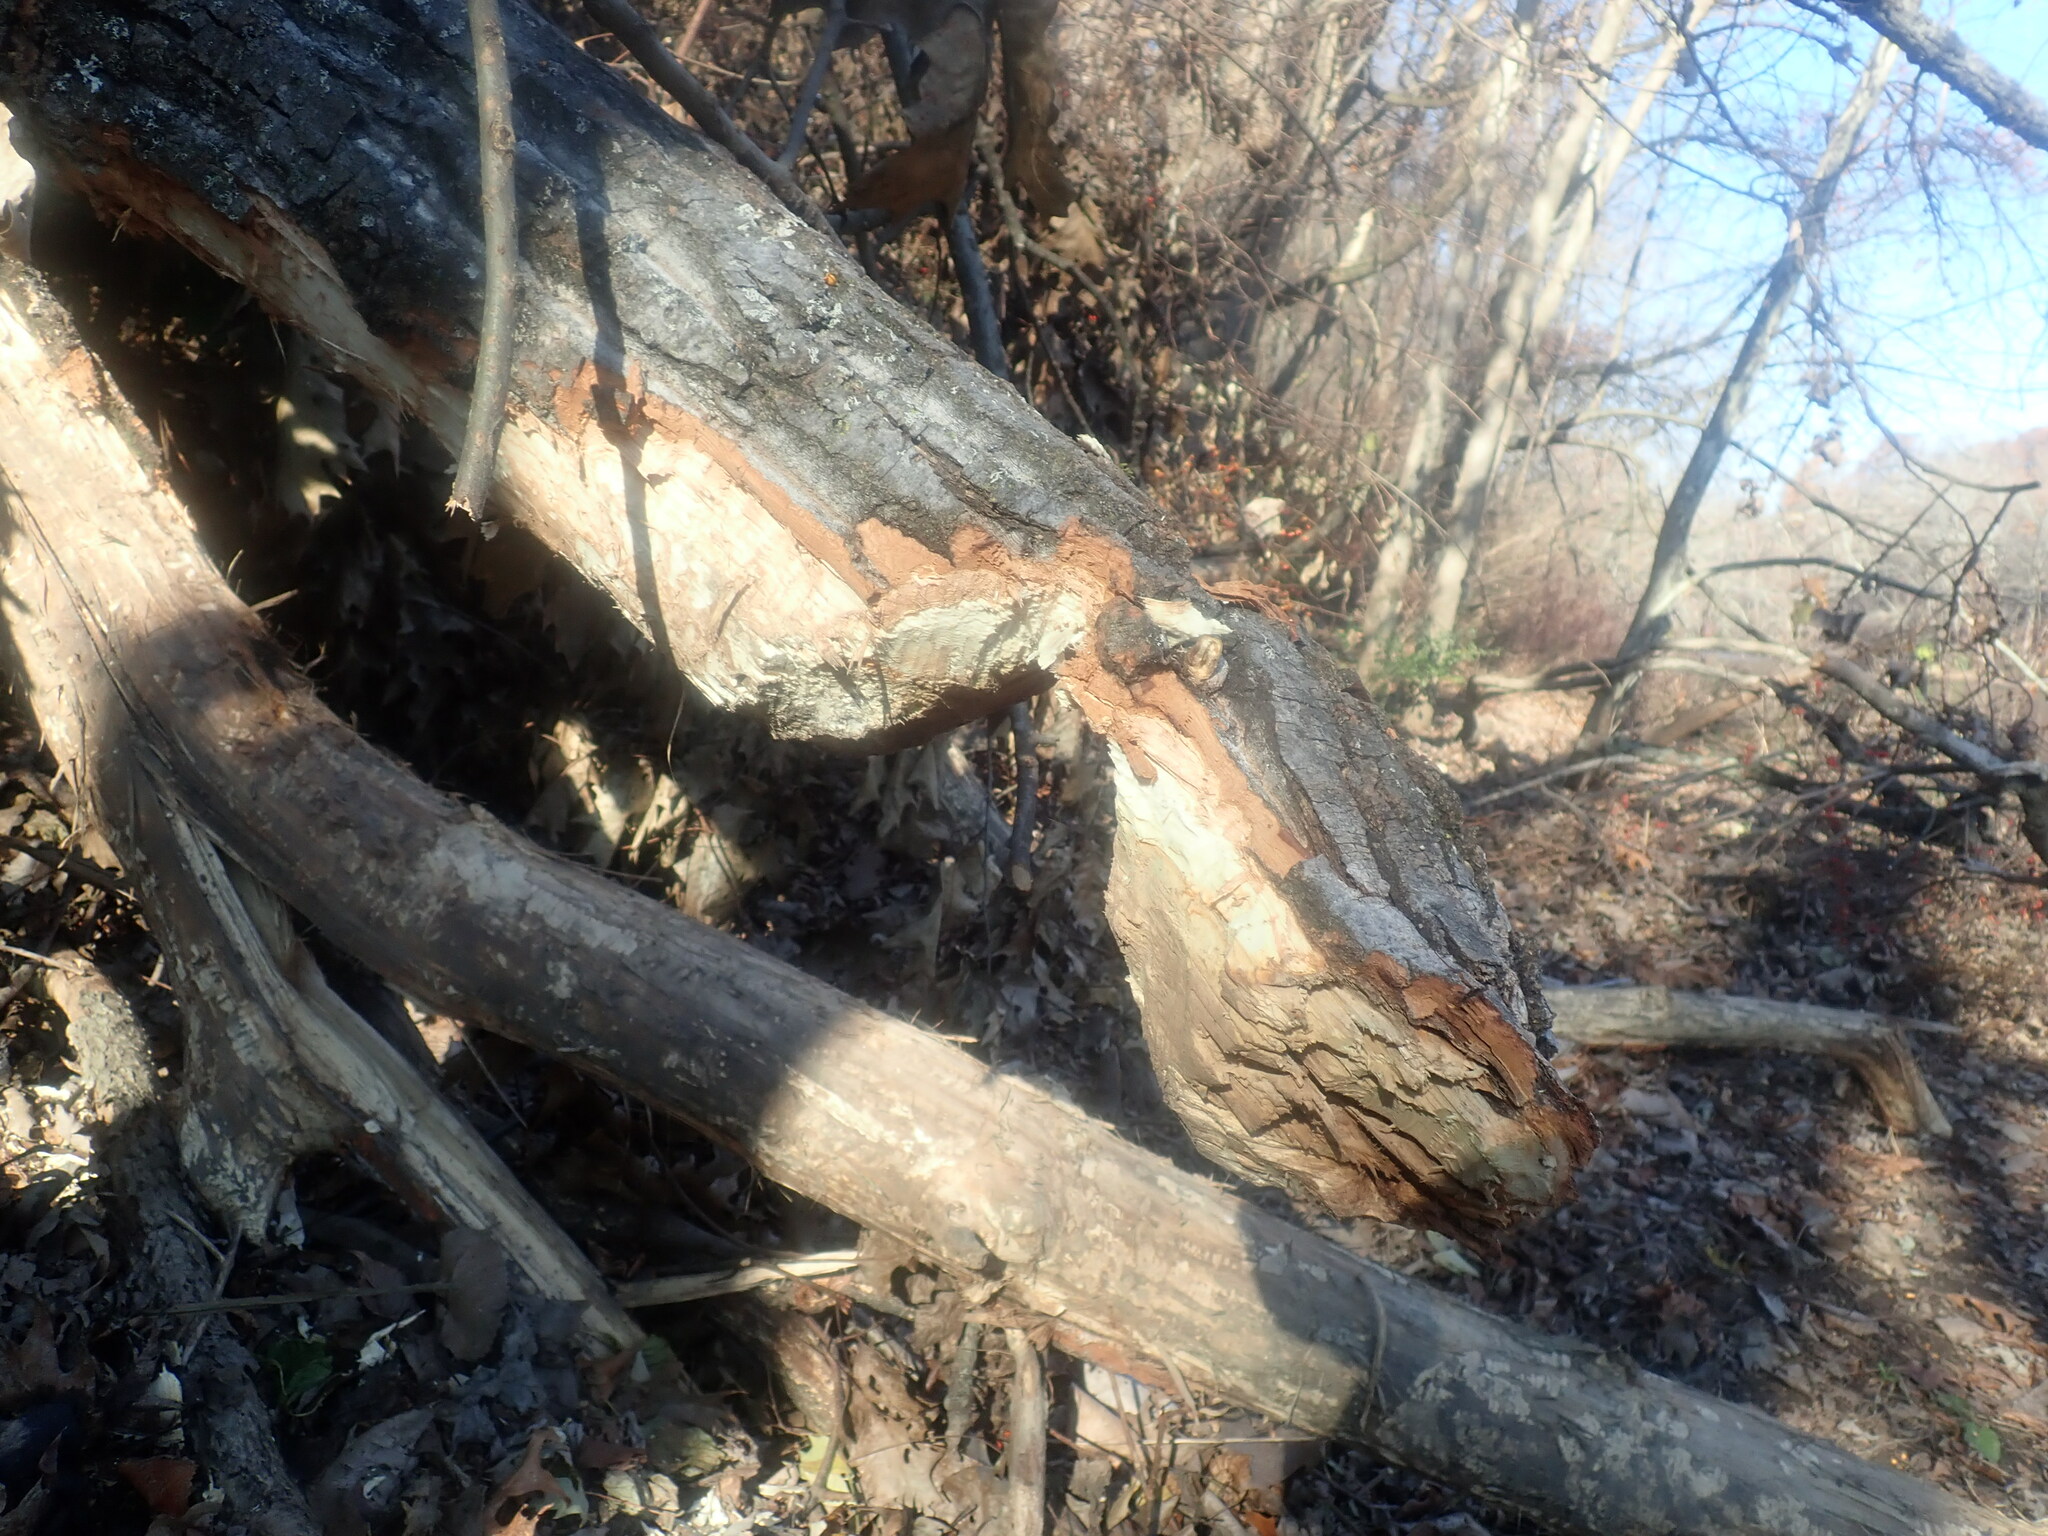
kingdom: Animalia
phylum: Chordata
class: Mammalia
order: Rodentia
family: Castoridae
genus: Castor
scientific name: Castor canadensis
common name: American beaver
